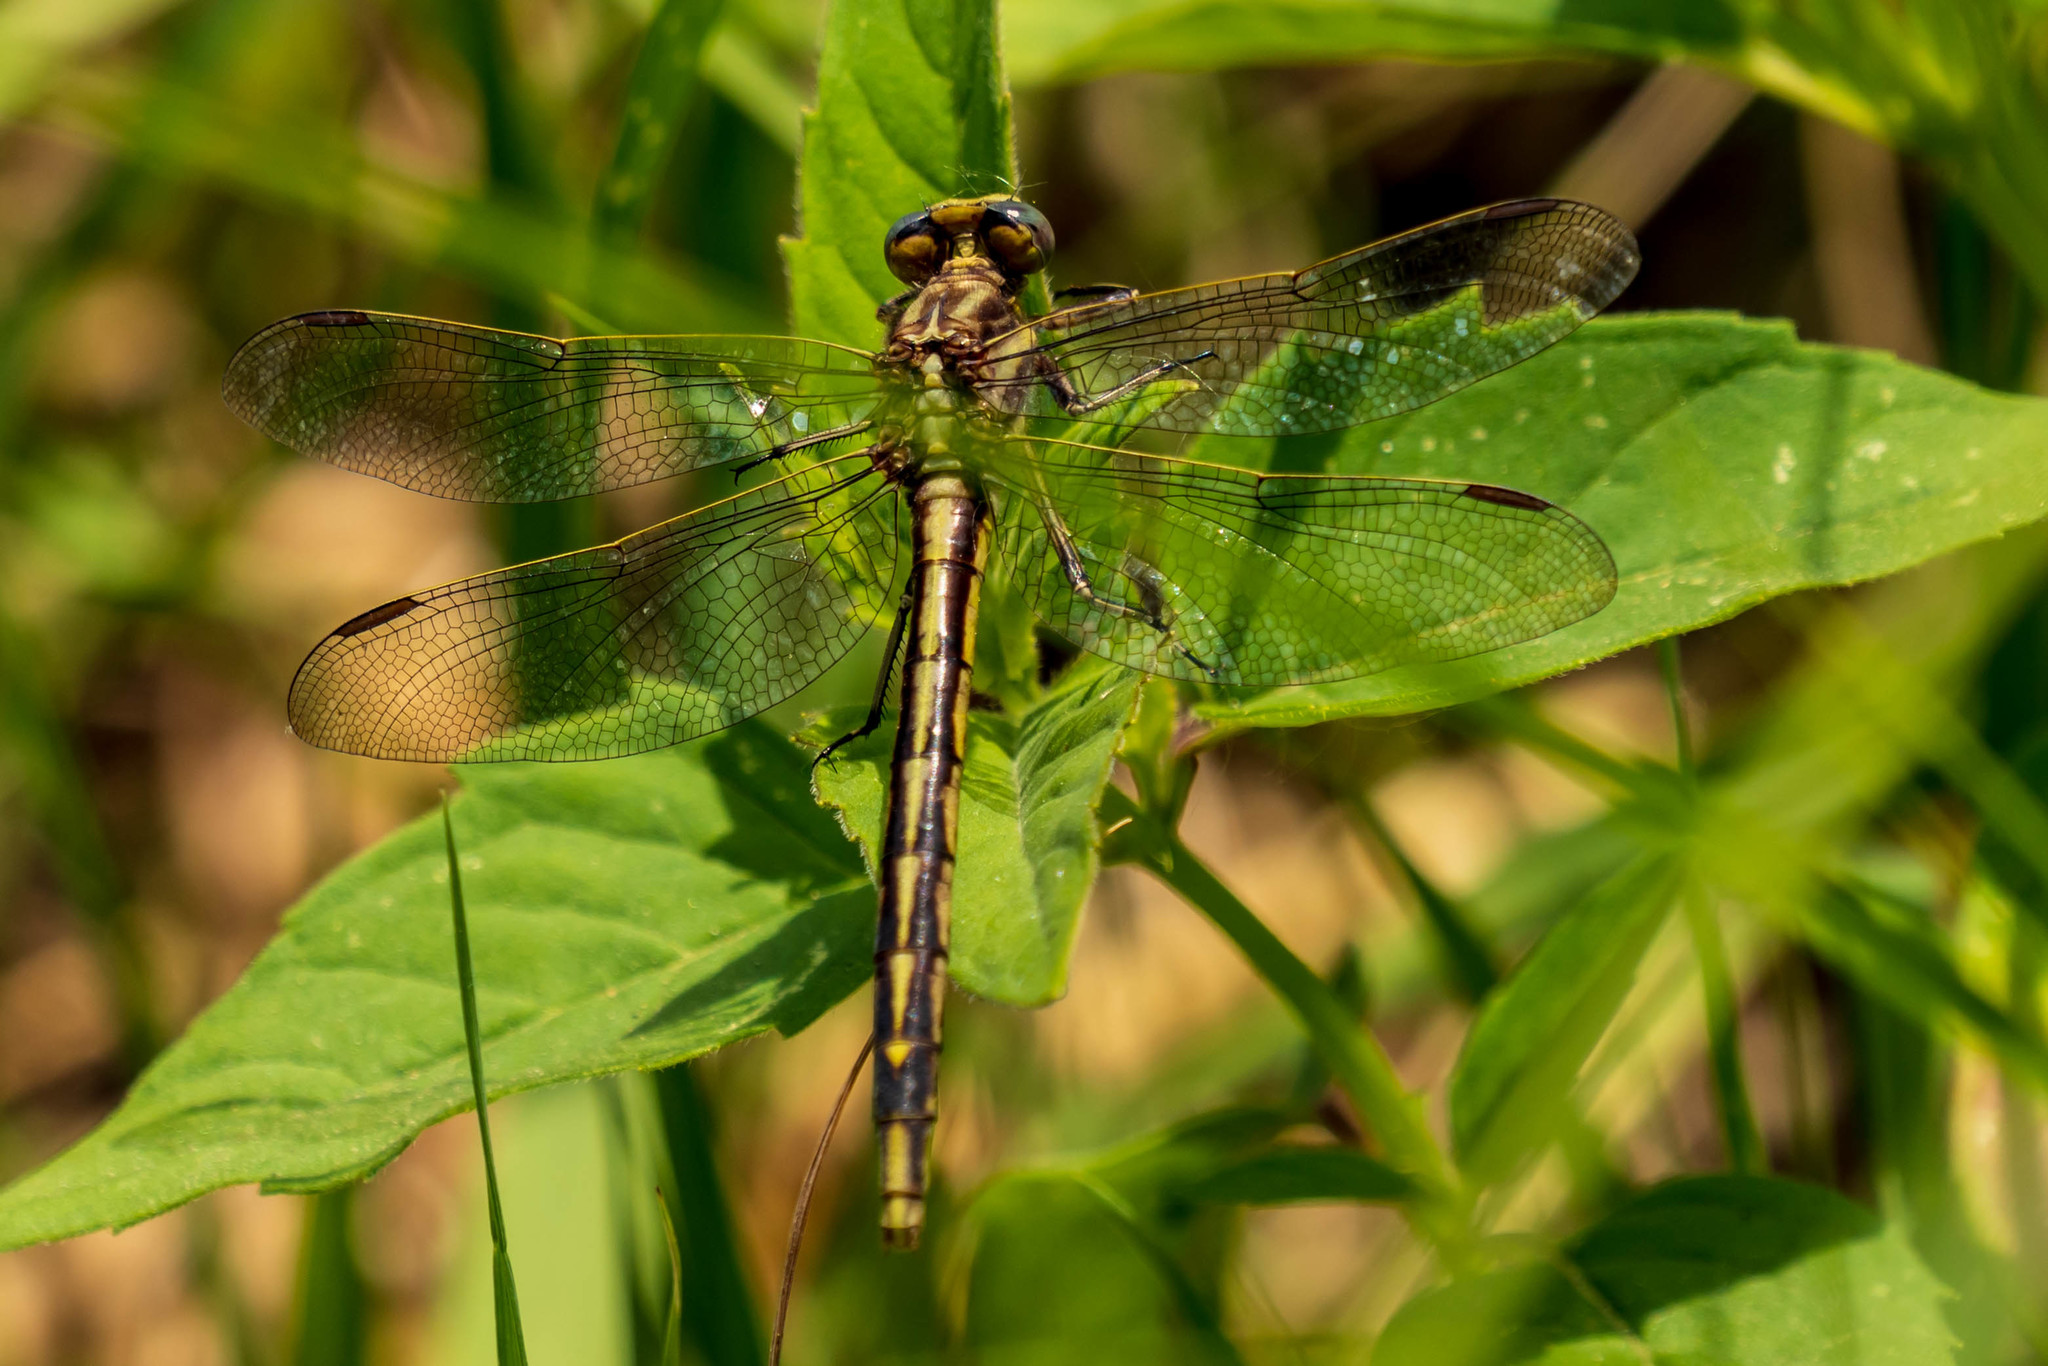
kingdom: Animalia
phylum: Arthropoda
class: Insecta
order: Odonata
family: Gomphidae
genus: Phanogomphus
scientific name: Phanogomphus spicatus
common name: Dusky clubtail
